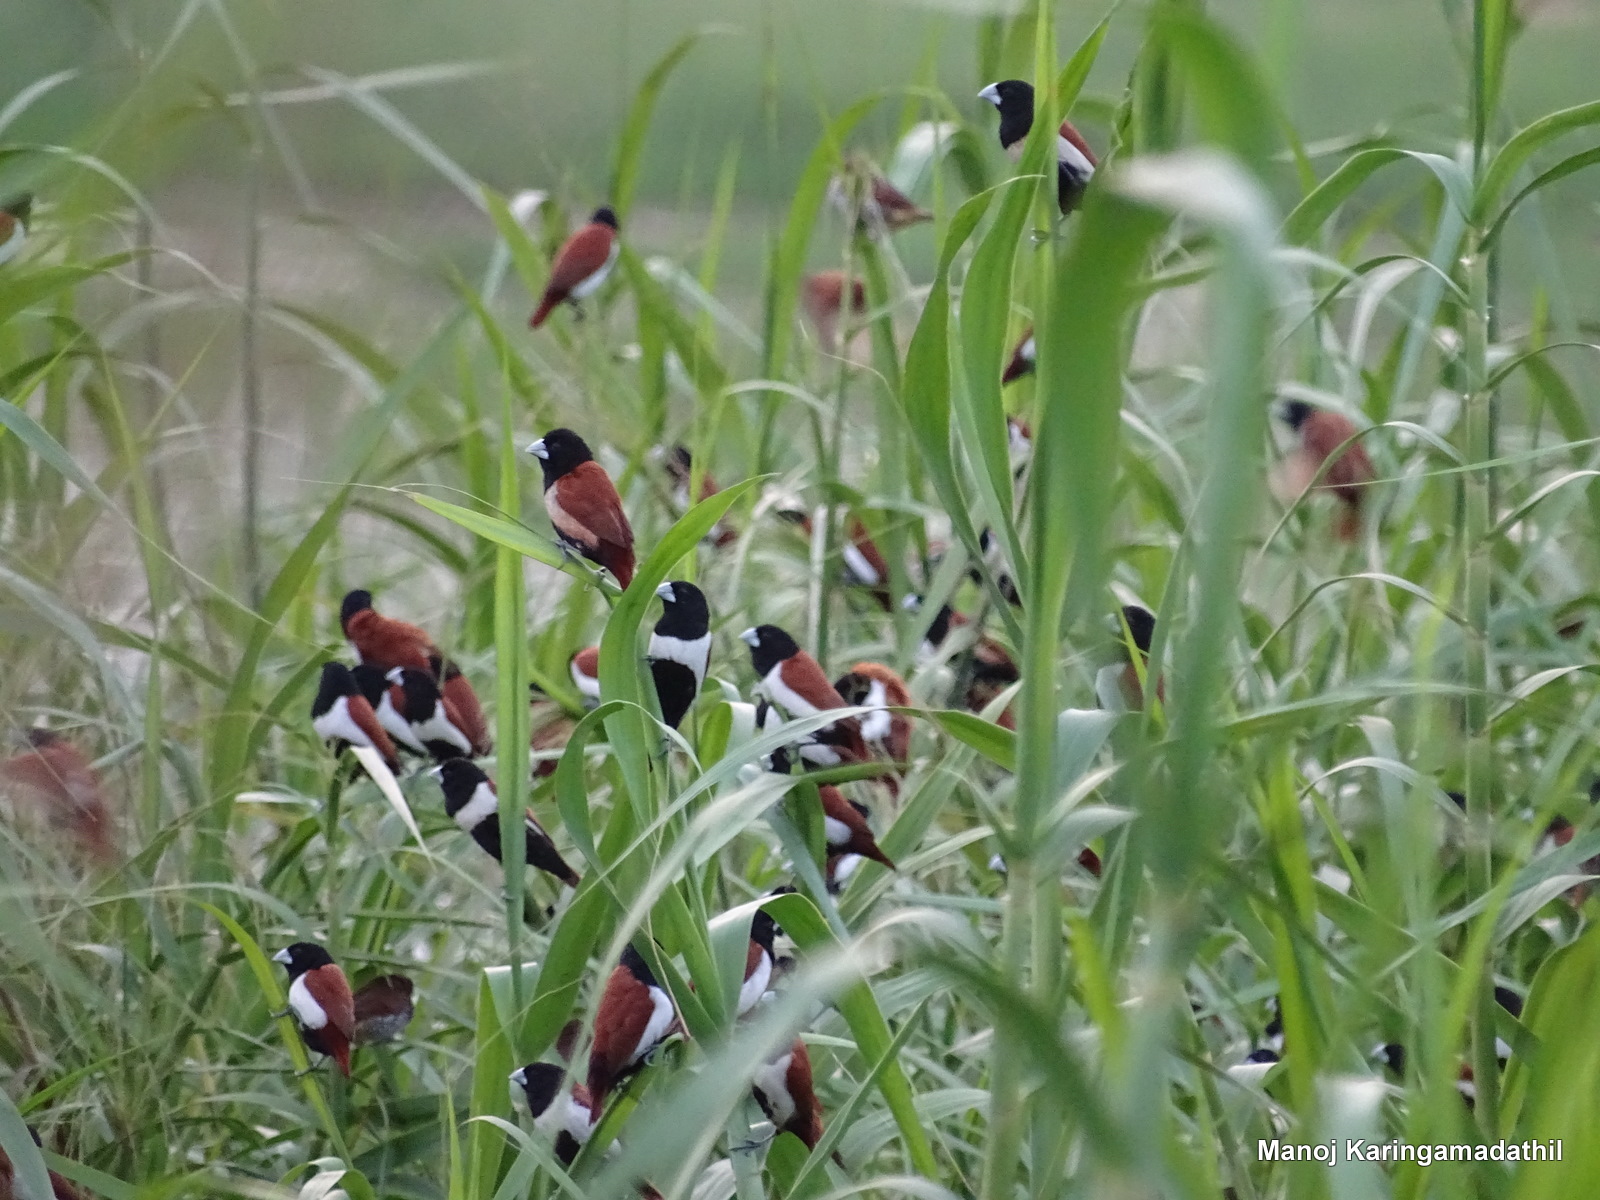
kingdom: Animalia
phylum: Chordata
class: Aves
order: Passeriformes
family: Estrildidae
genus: Lonchura
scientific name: Lonchura malacca
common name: Tricolored munia
